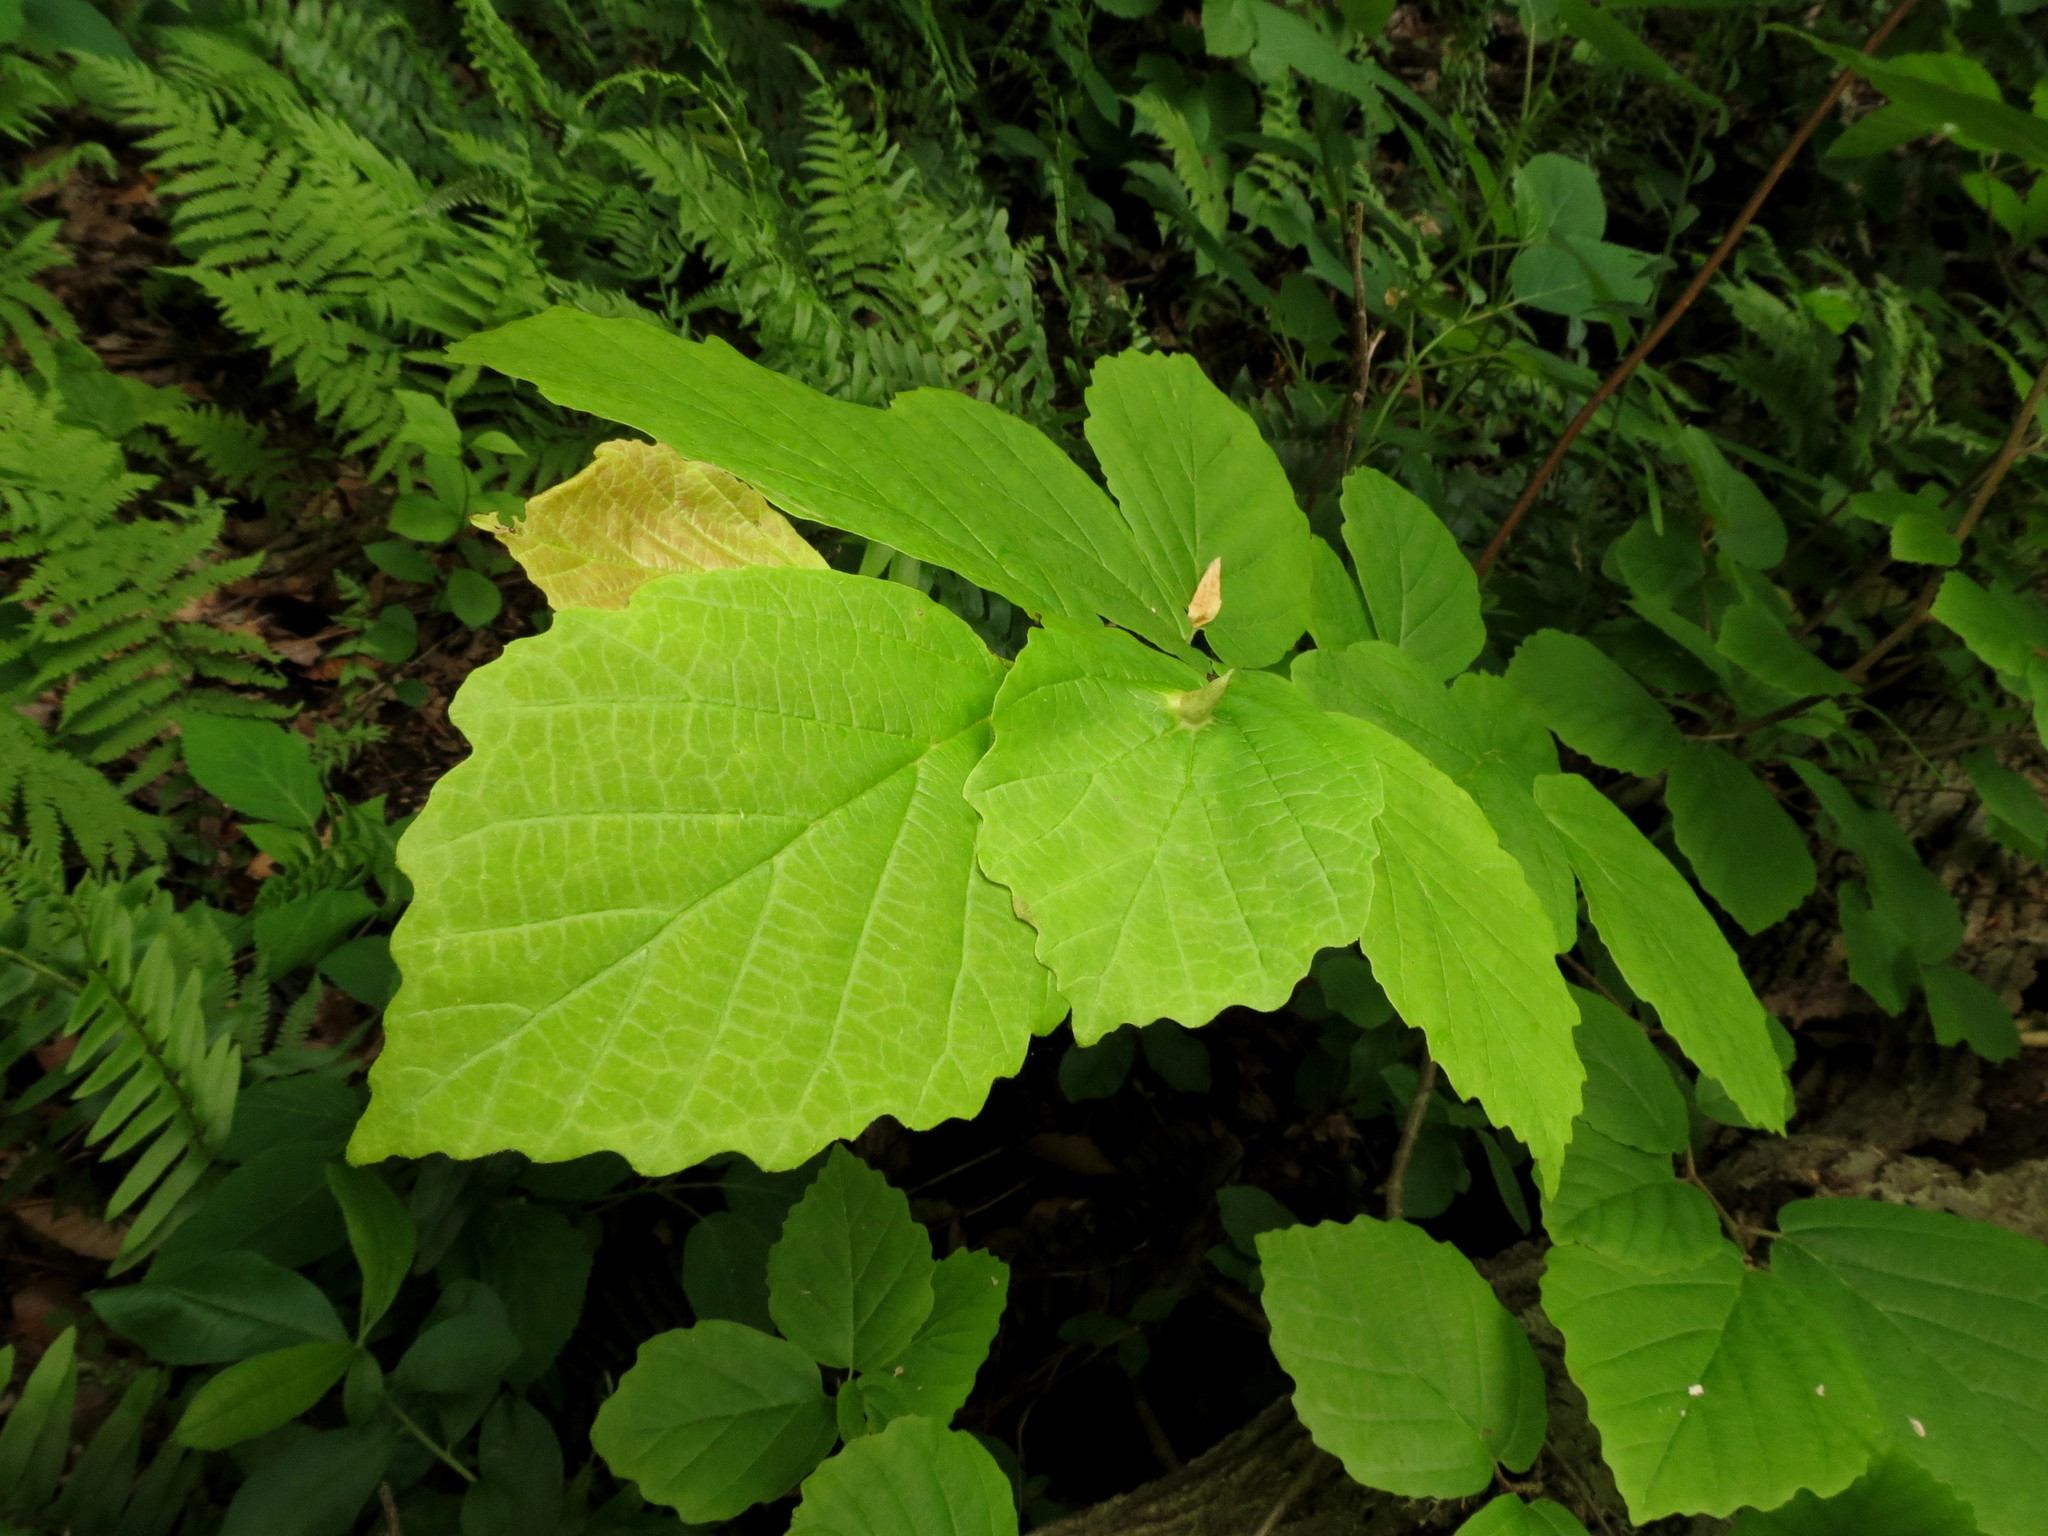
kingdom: Plantae
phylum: Tracheophyta
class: Magnoliopsida
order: Saxifragales
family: Hamamelidaceae
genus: Hamamelis
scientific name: Hamamelis virginiana
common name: Witch-hazel
